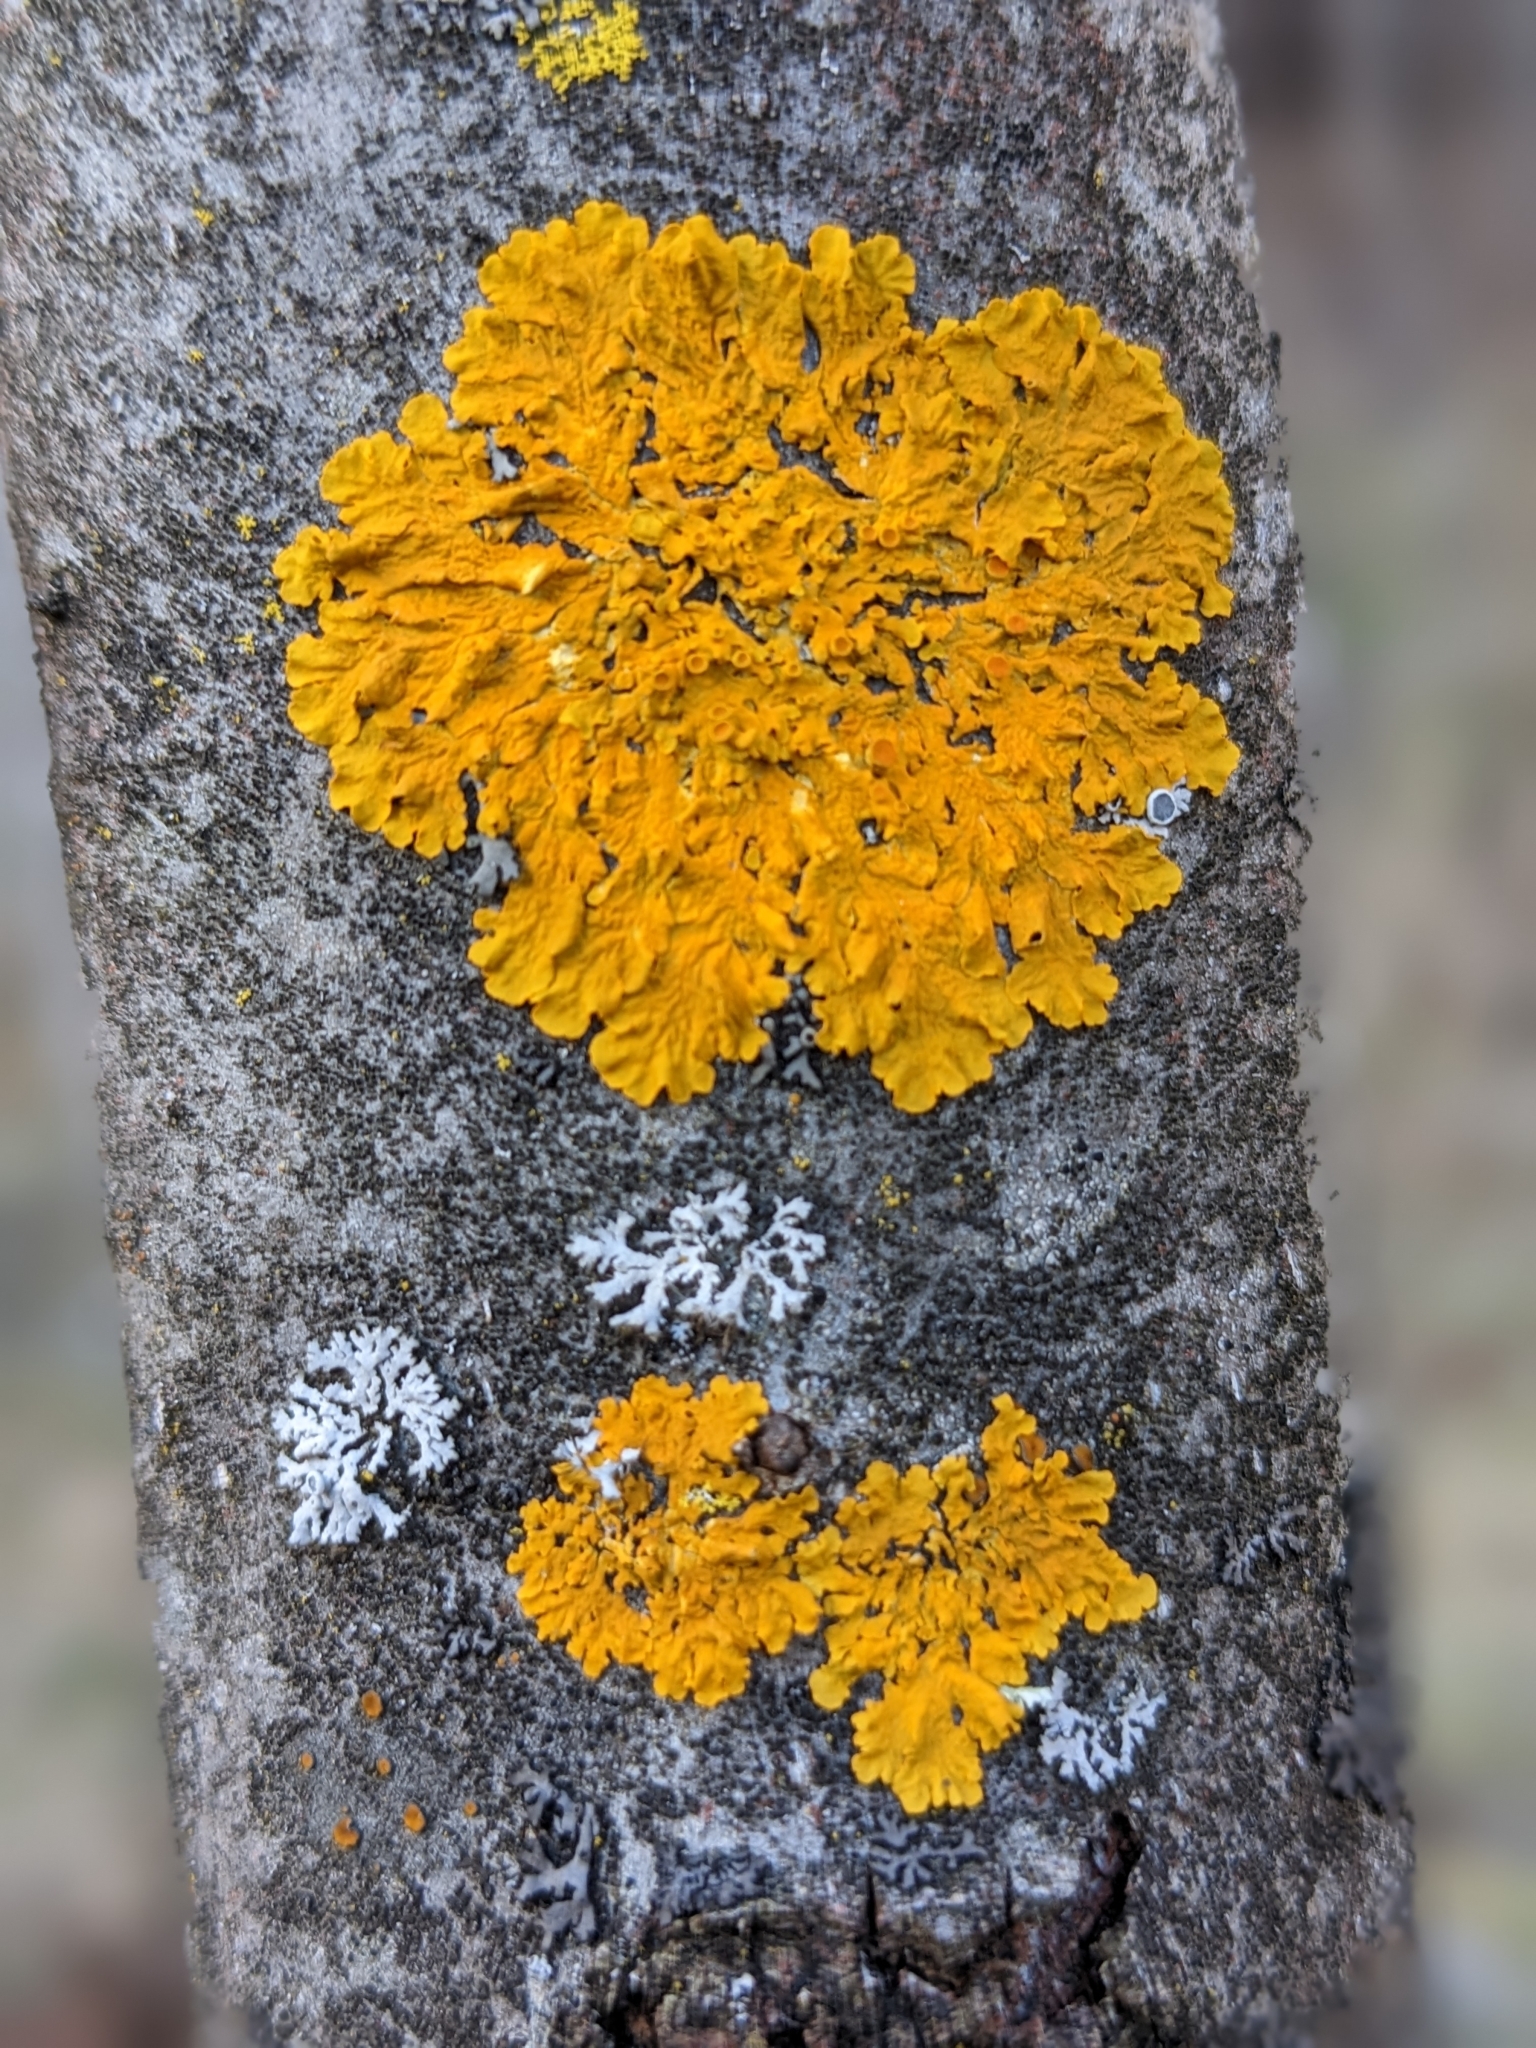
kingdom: Fungi
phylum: Ascomycota
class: Lecanoromycetes
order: Teloschistales
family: Teloschistaceae
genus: Xanthoria
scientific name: Xanthoria parietina
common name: Common orange lichen
